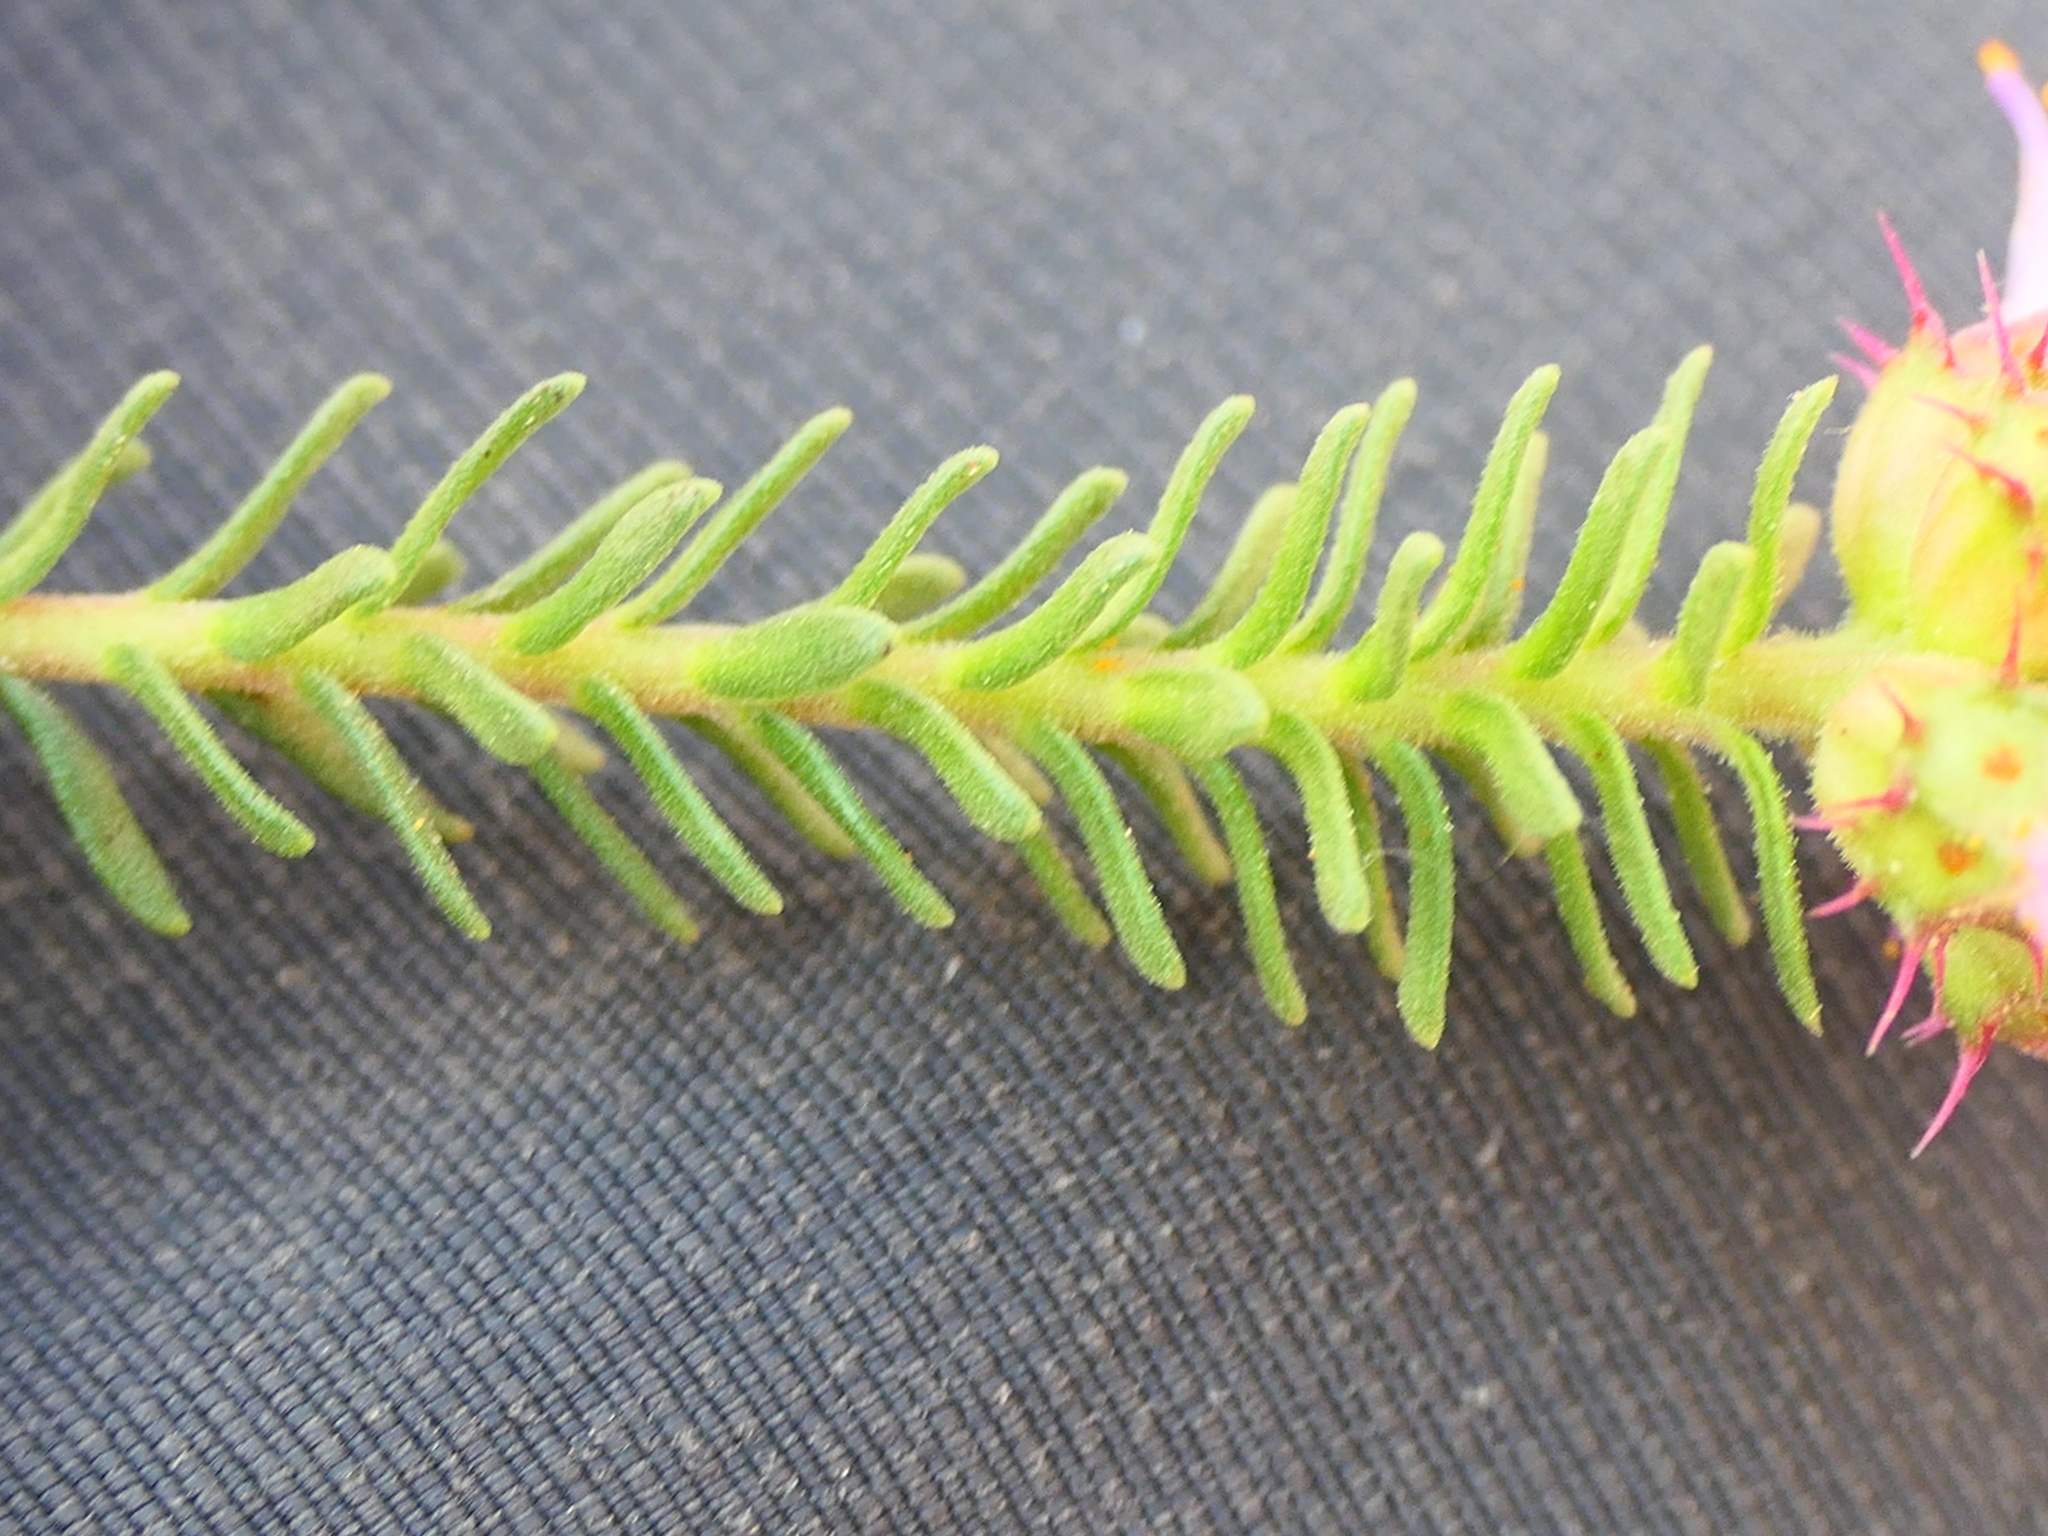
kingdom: Plantae
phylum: Tracheophyta
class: Magnoliopsida
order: Ericales
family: Primulaceae
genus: Coris
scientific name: Coris monspeliensis
